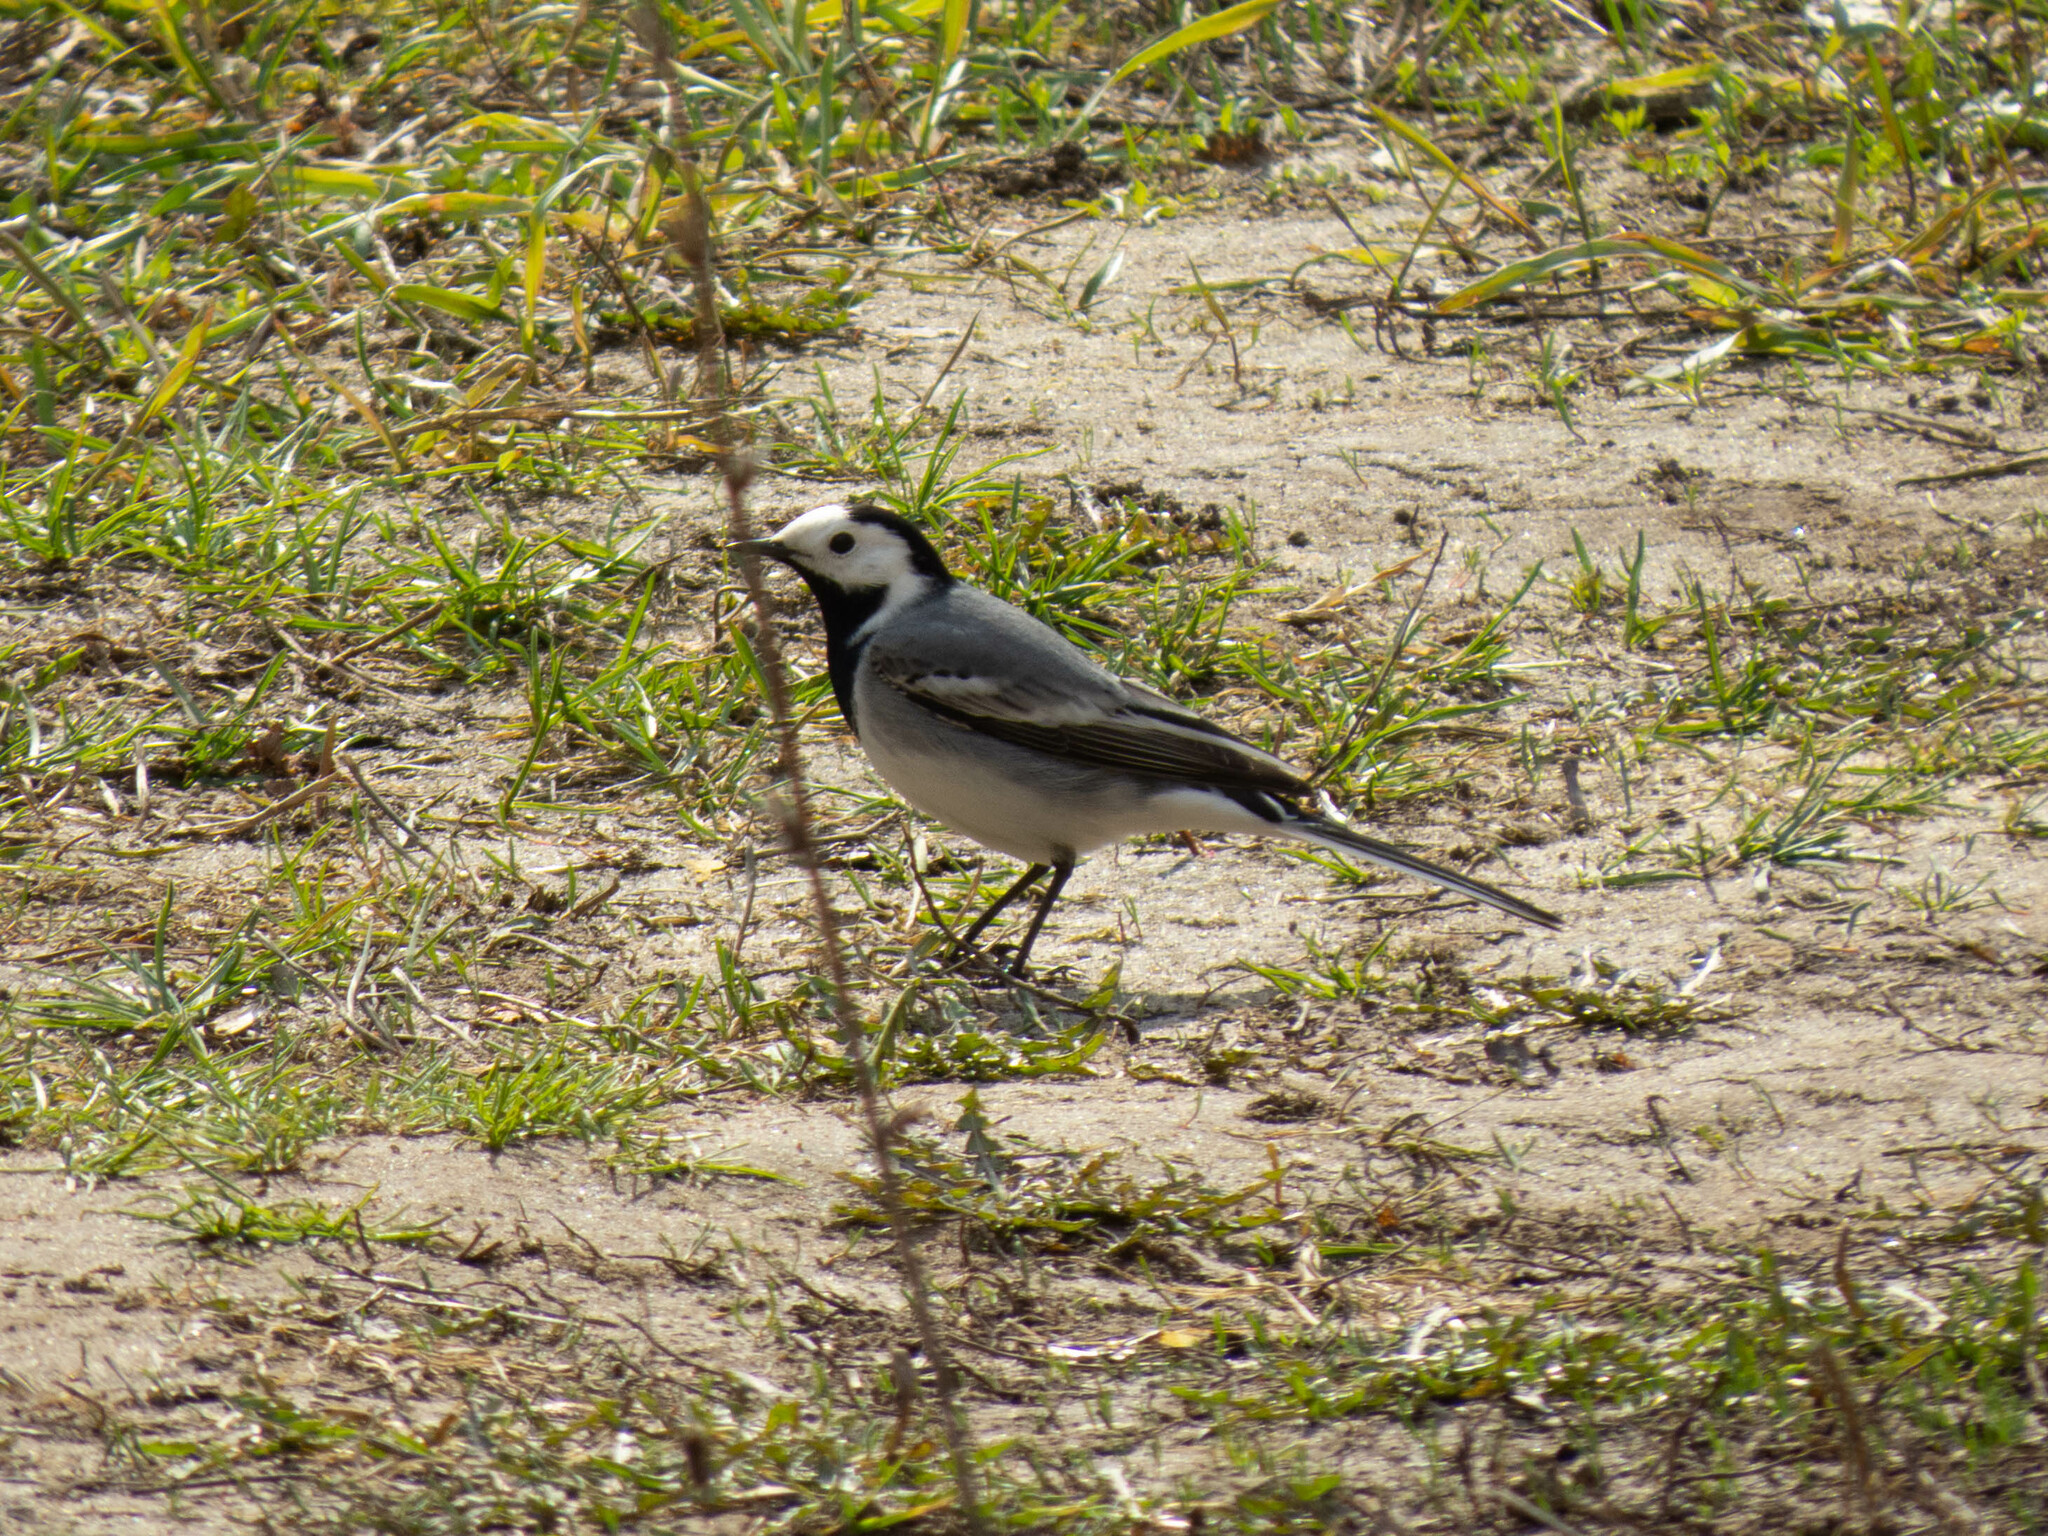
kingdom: Animalia
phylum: Chordata
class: Aves
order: Passeriformes
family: Motacillidae
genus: Motacilla
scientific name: Motacilla alba
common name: White wagtail
